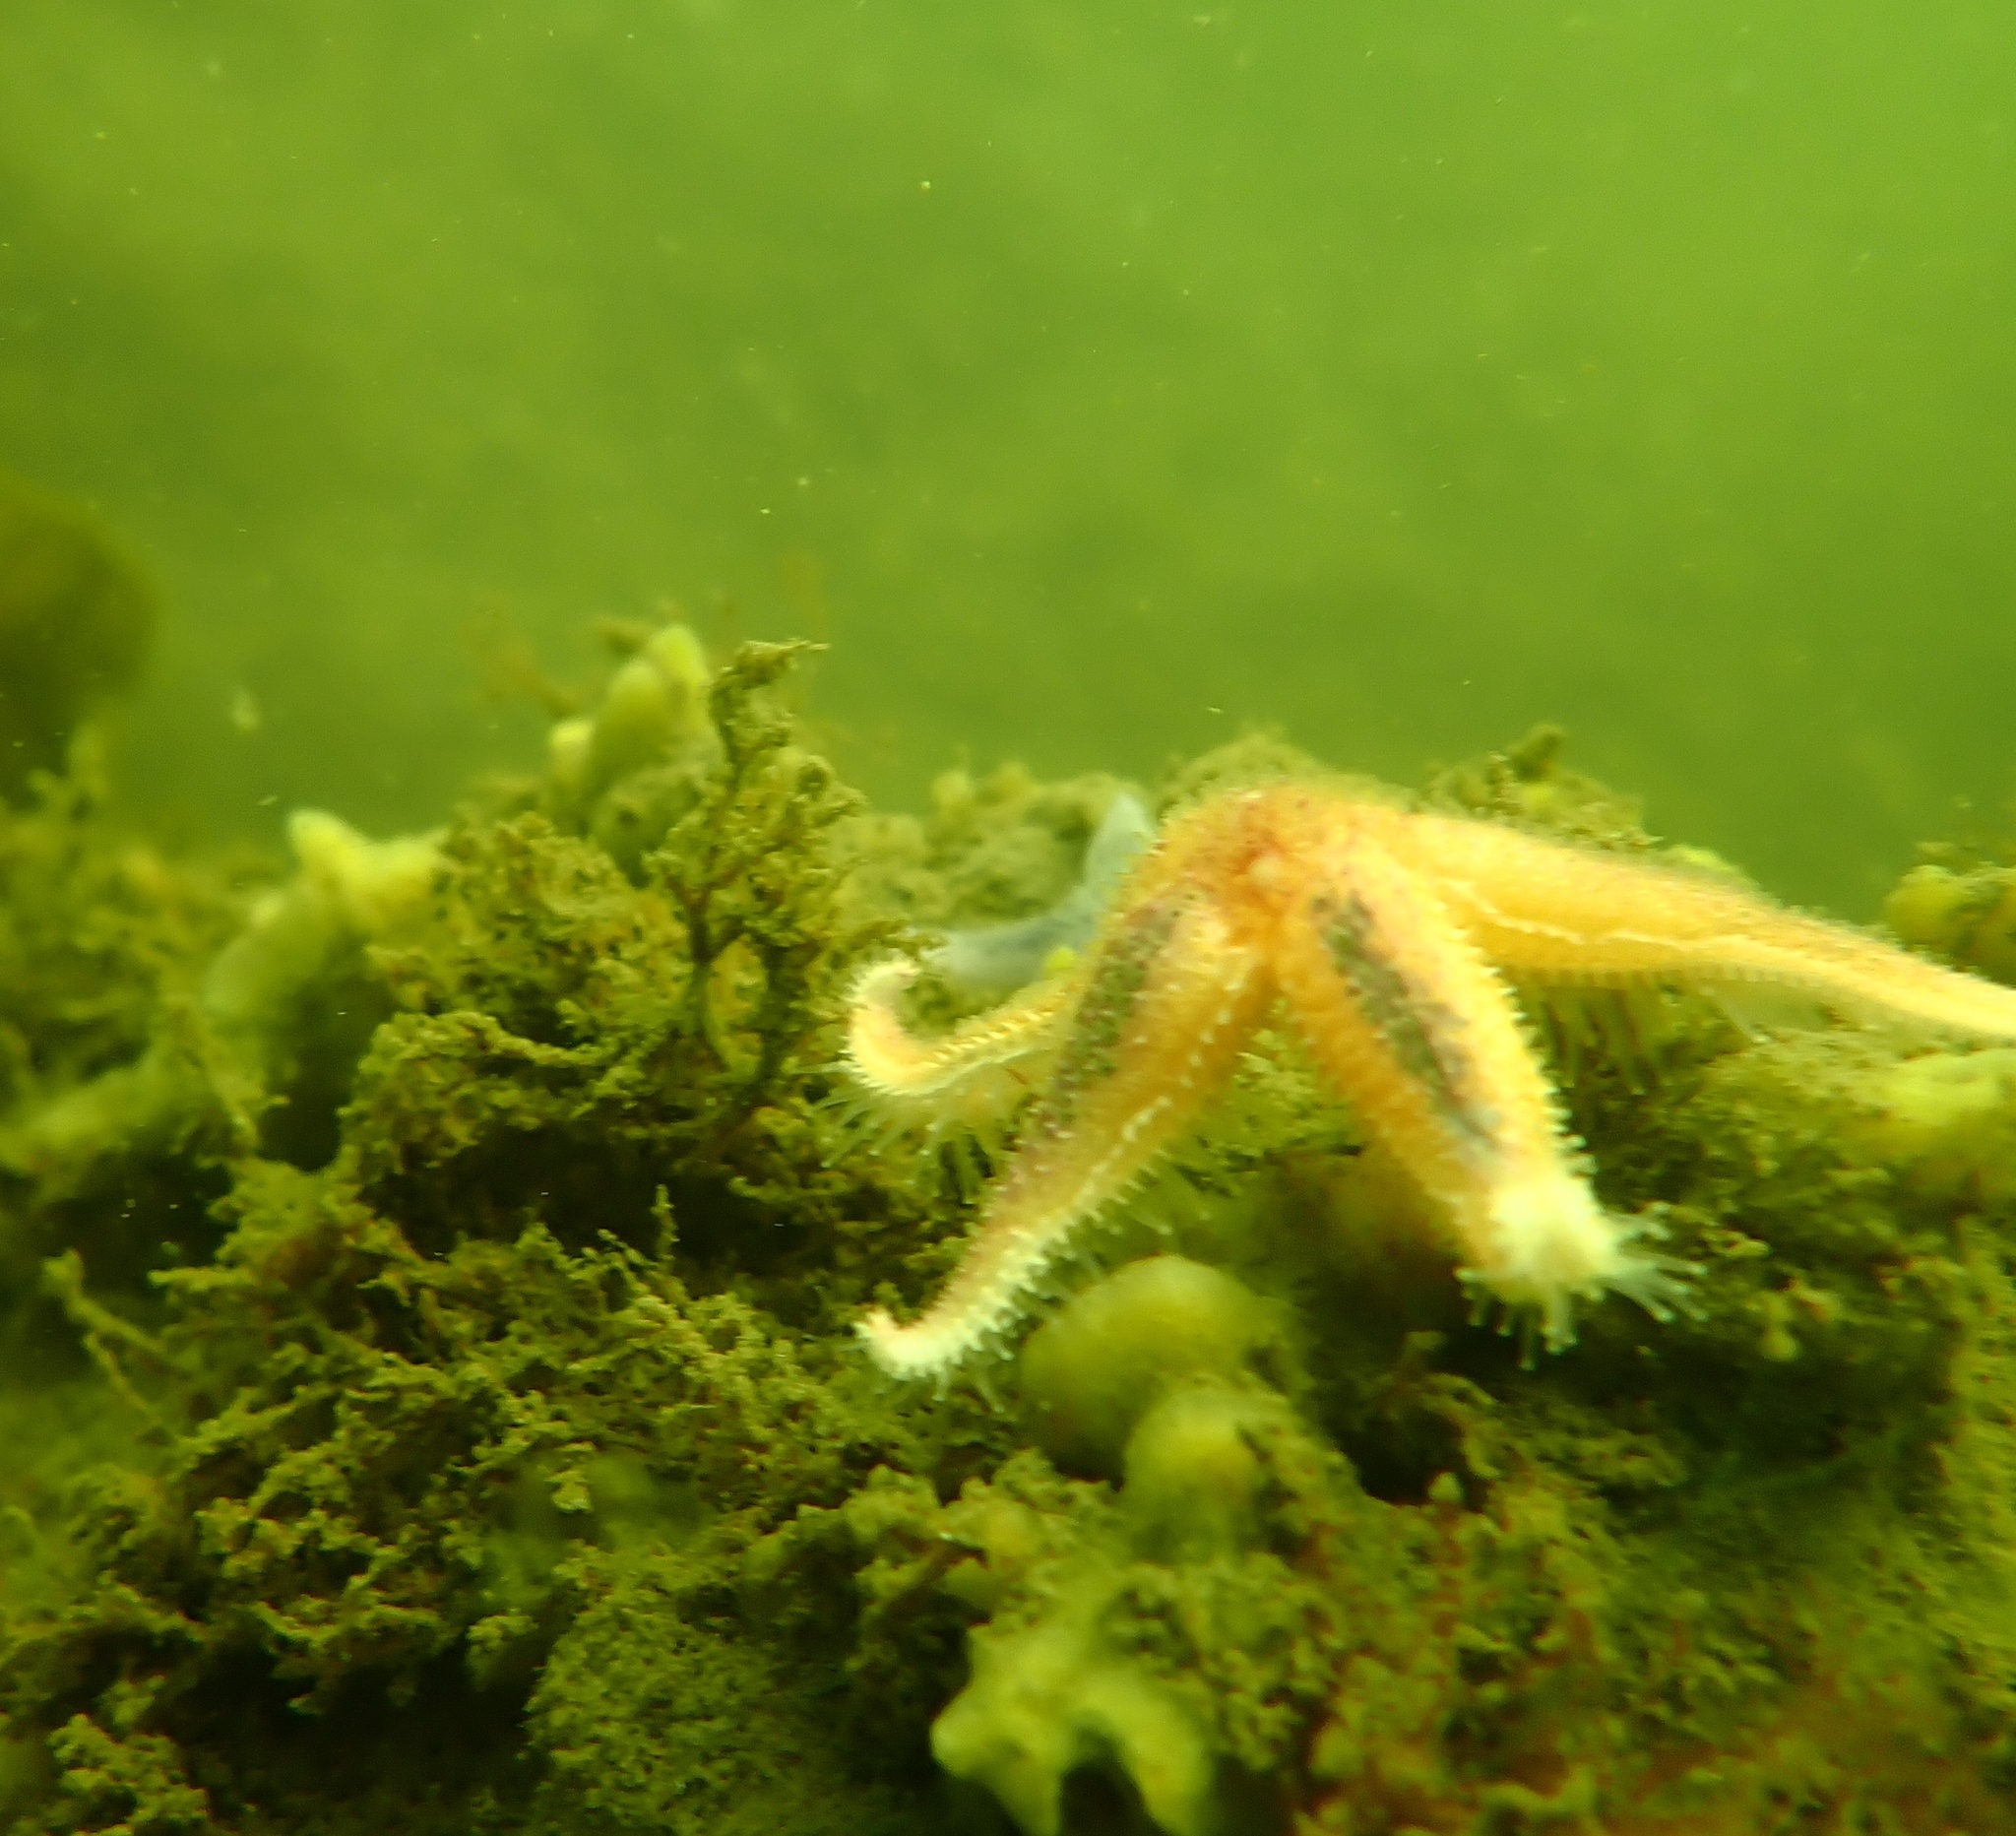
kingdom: Animalia
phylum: Echinodermata
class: Asteroidea
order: Forcipulatida
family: Asteriidae
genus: Asterias
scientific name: Asterias rubens
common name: Common starfish
